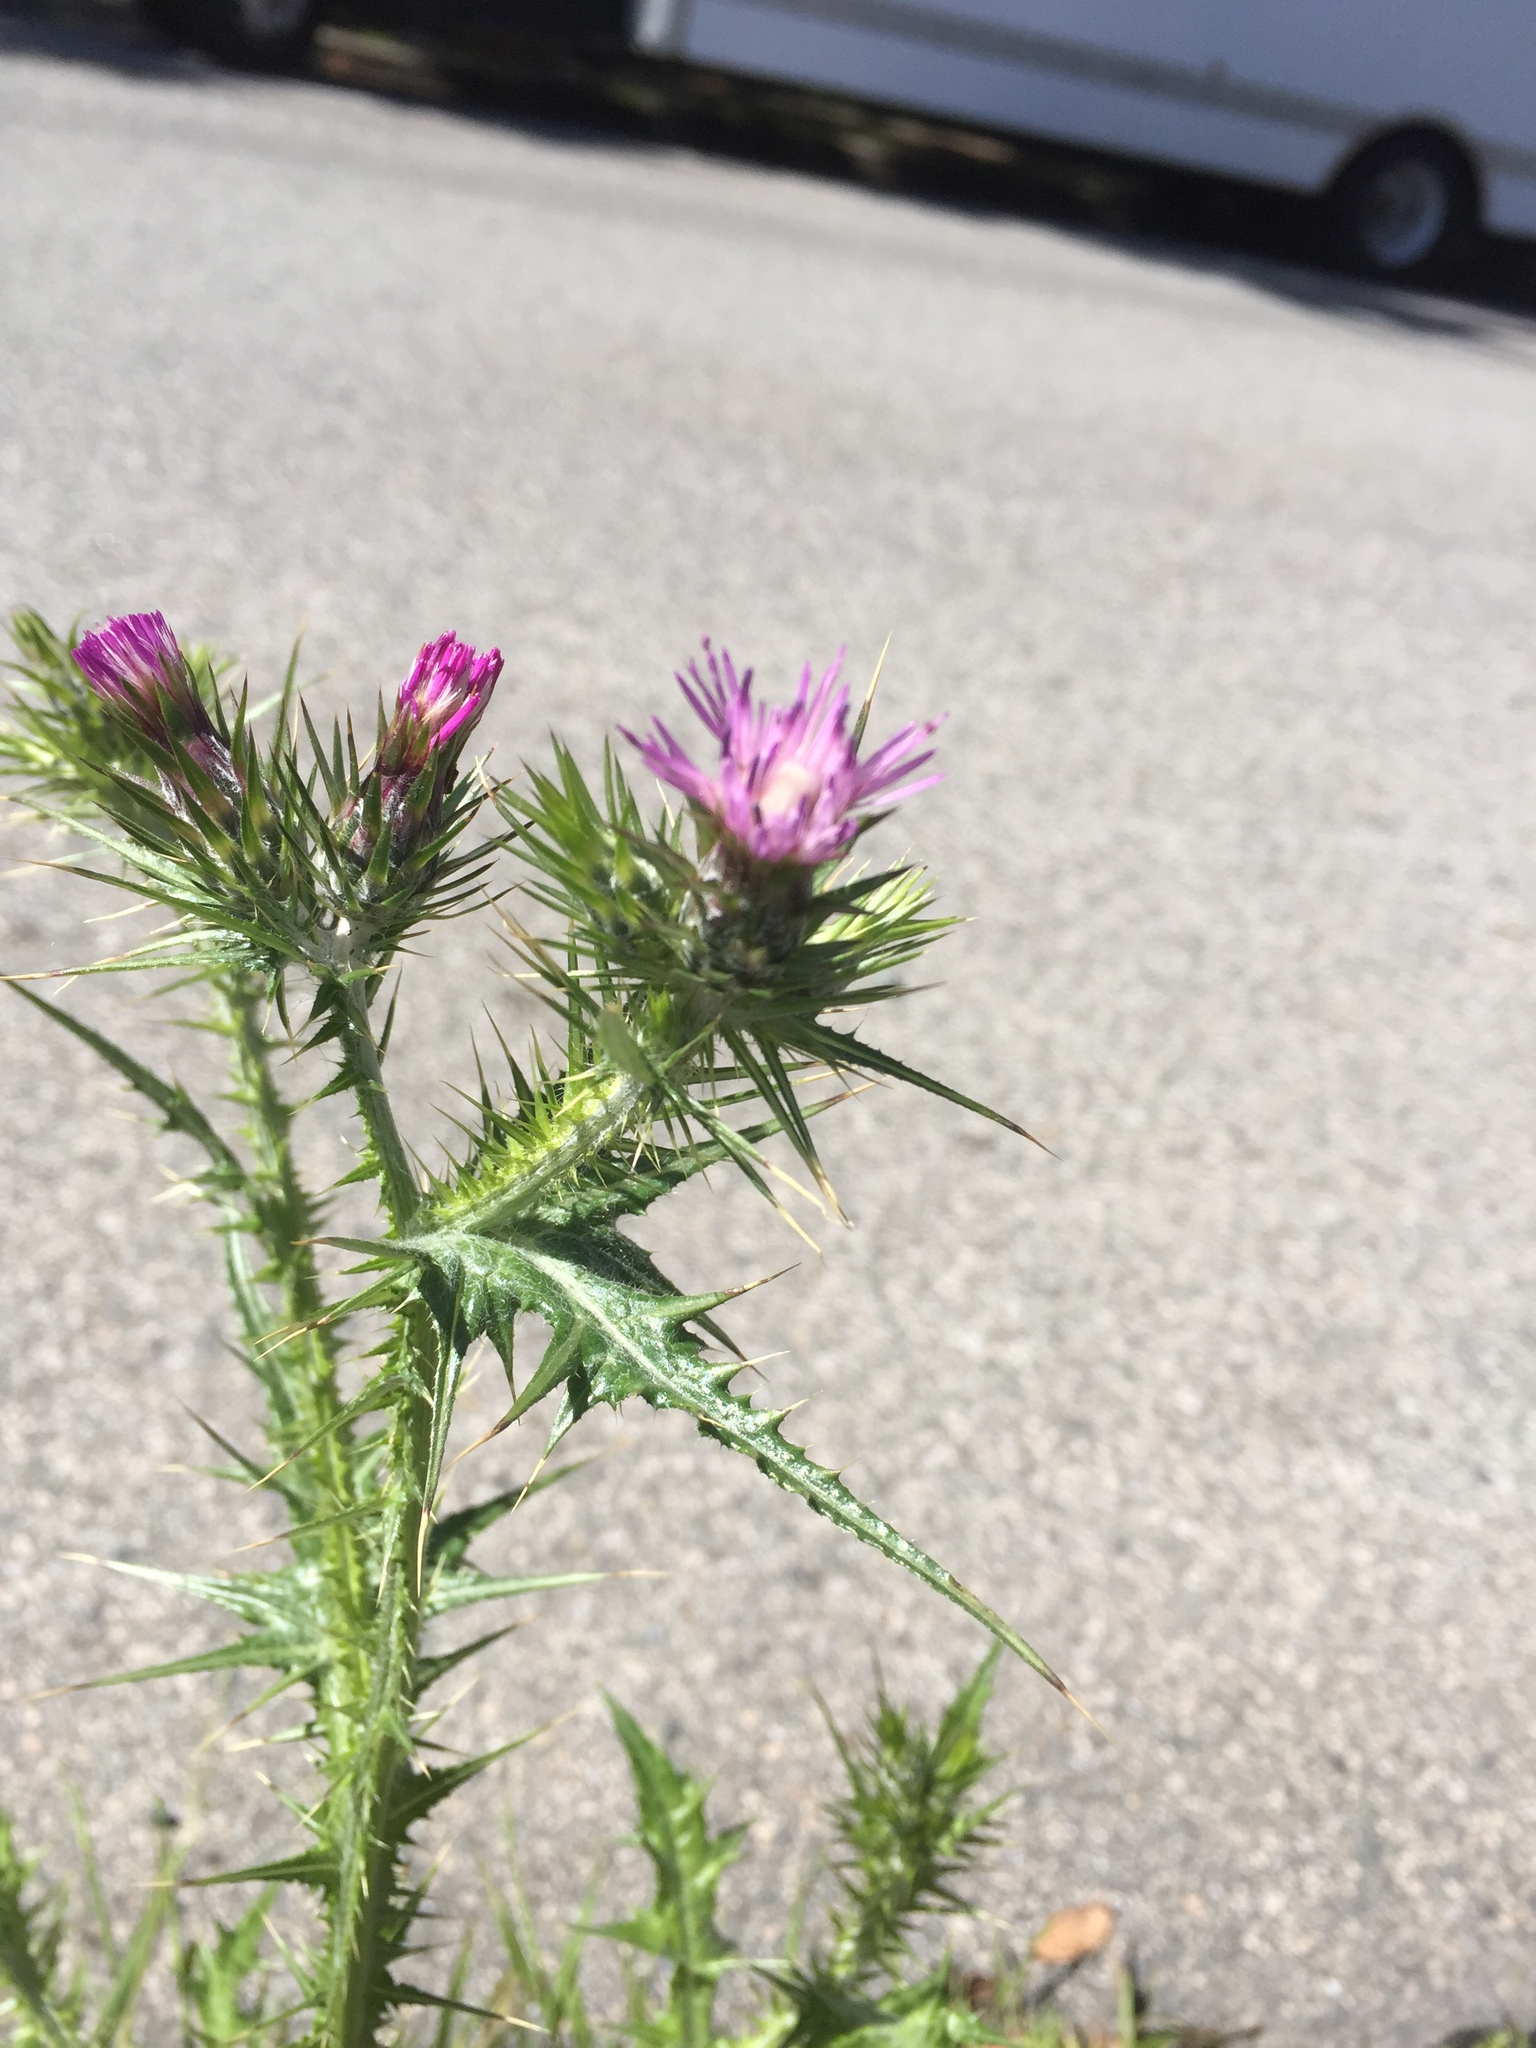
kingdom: Plantae
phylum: Tracheophyta
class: Magnoliopsida
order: Asterales
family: Asteraceae
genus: Carduus
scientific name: Carduus pycnocephalus
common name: Plymouth thistle
